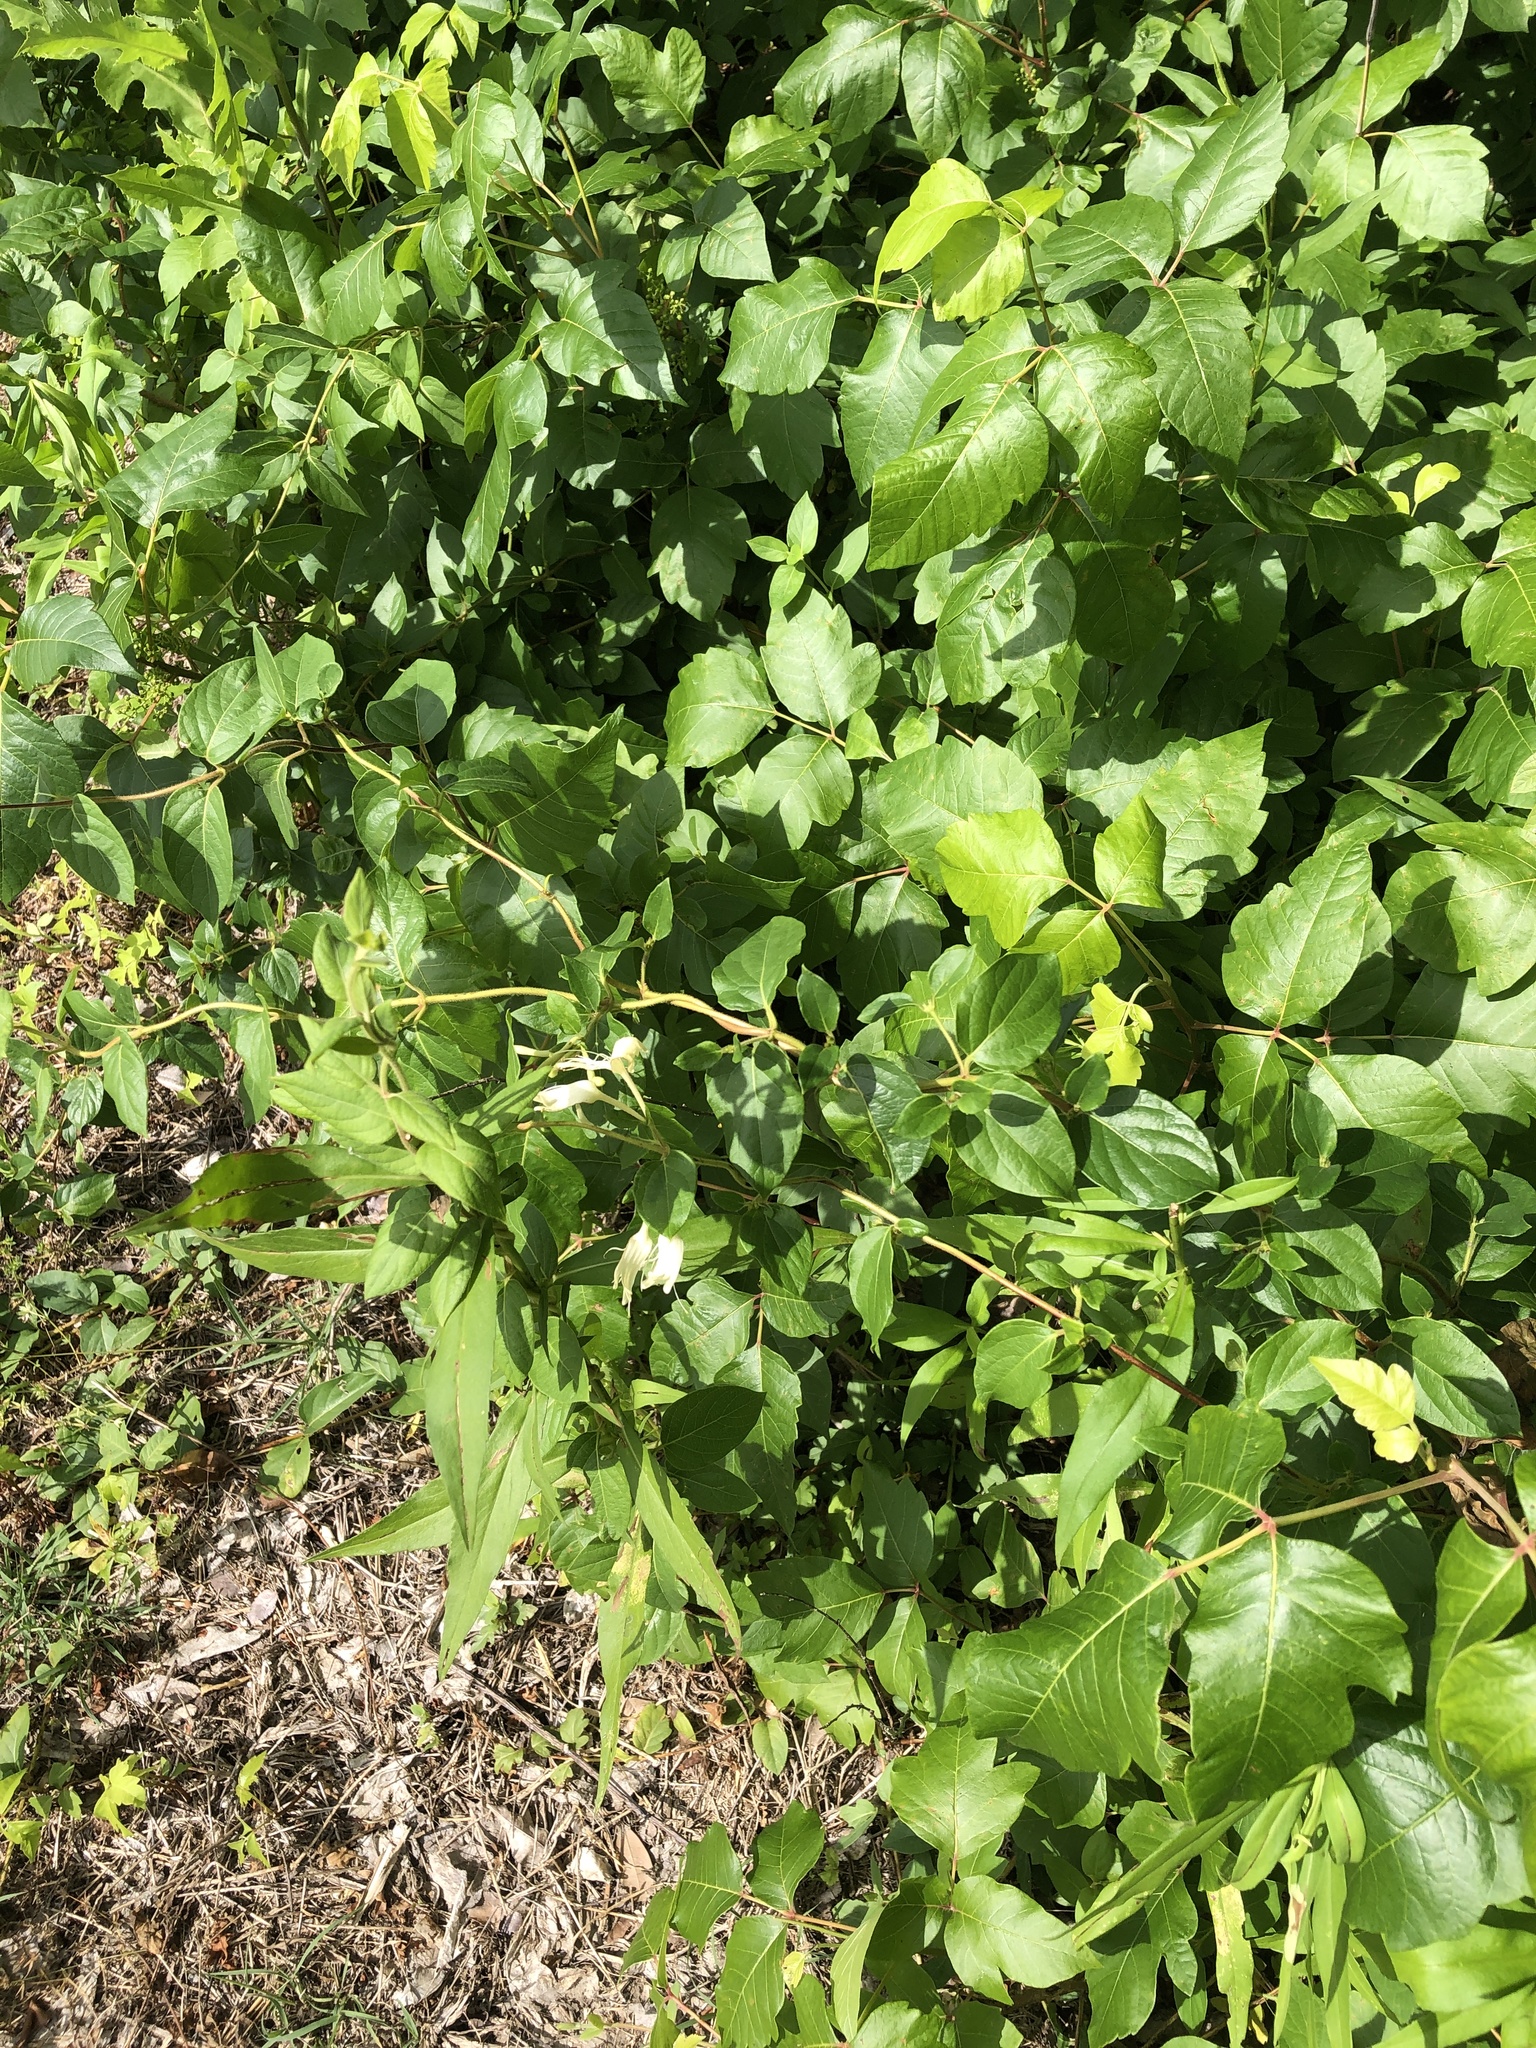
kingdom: Plantae
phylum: Tracheophyta
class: Magnoliopsida
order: Dipsacales
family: Caprifoliaceae
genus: Lonicera
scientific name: Lonicera japonica
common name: Japanese honeysuckle
